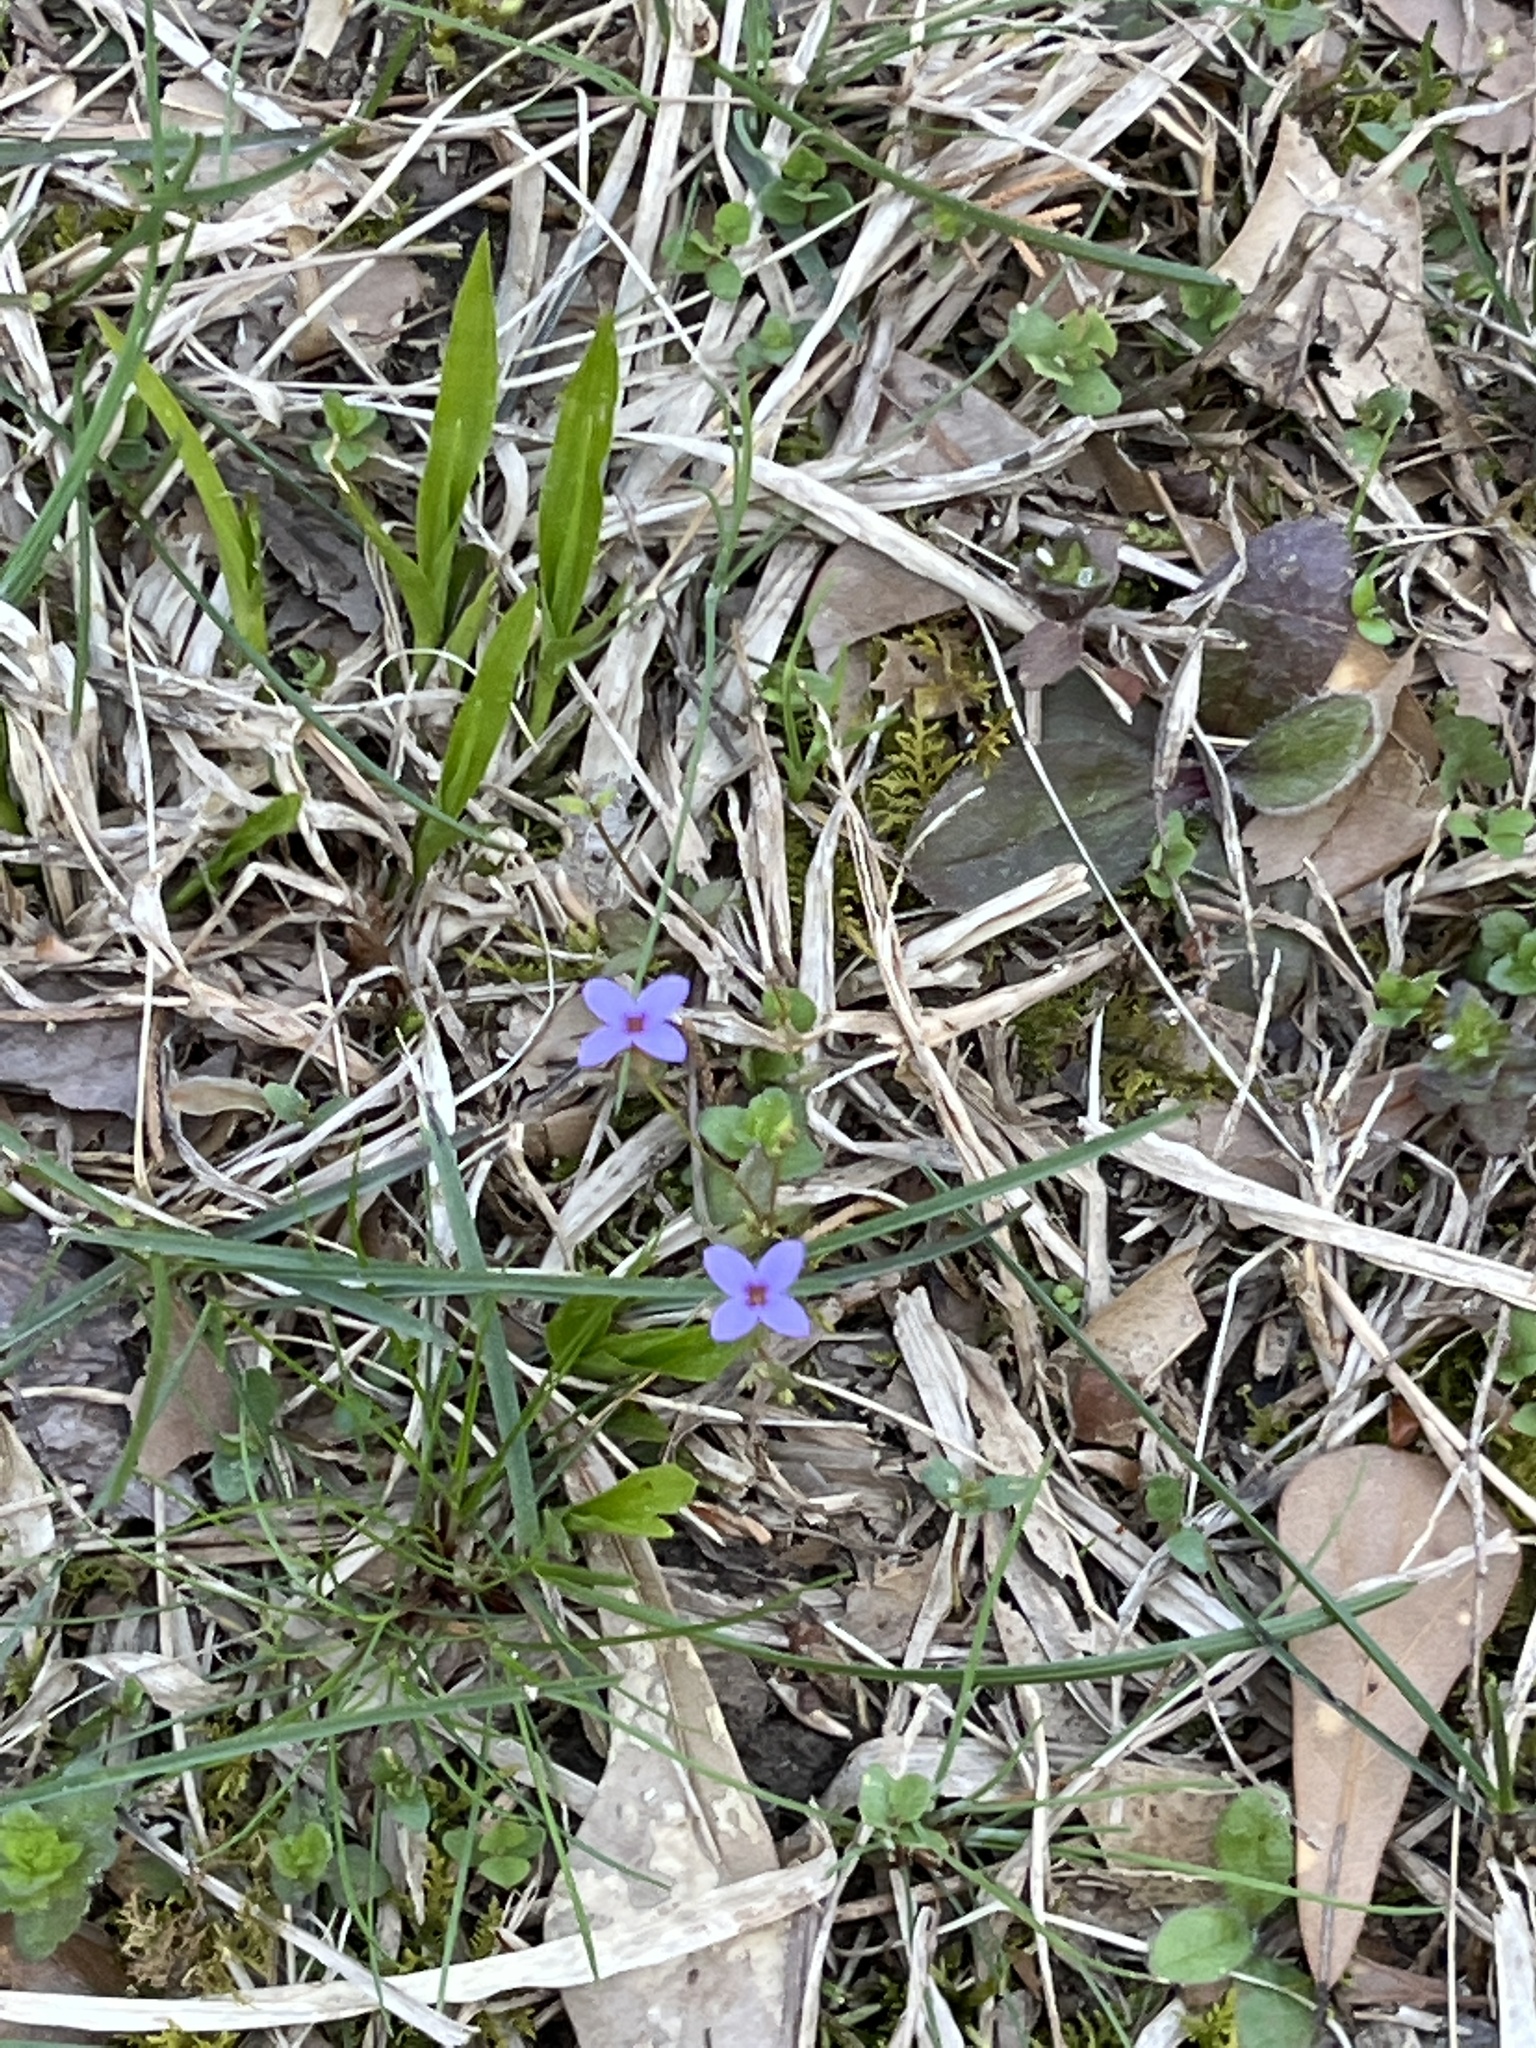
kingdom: Plantae
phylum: Tracheophyta
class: Magnoliopsida
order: Gentianales
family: Rubiaceae
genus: Houstonia
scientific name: Houstonia pusilla
